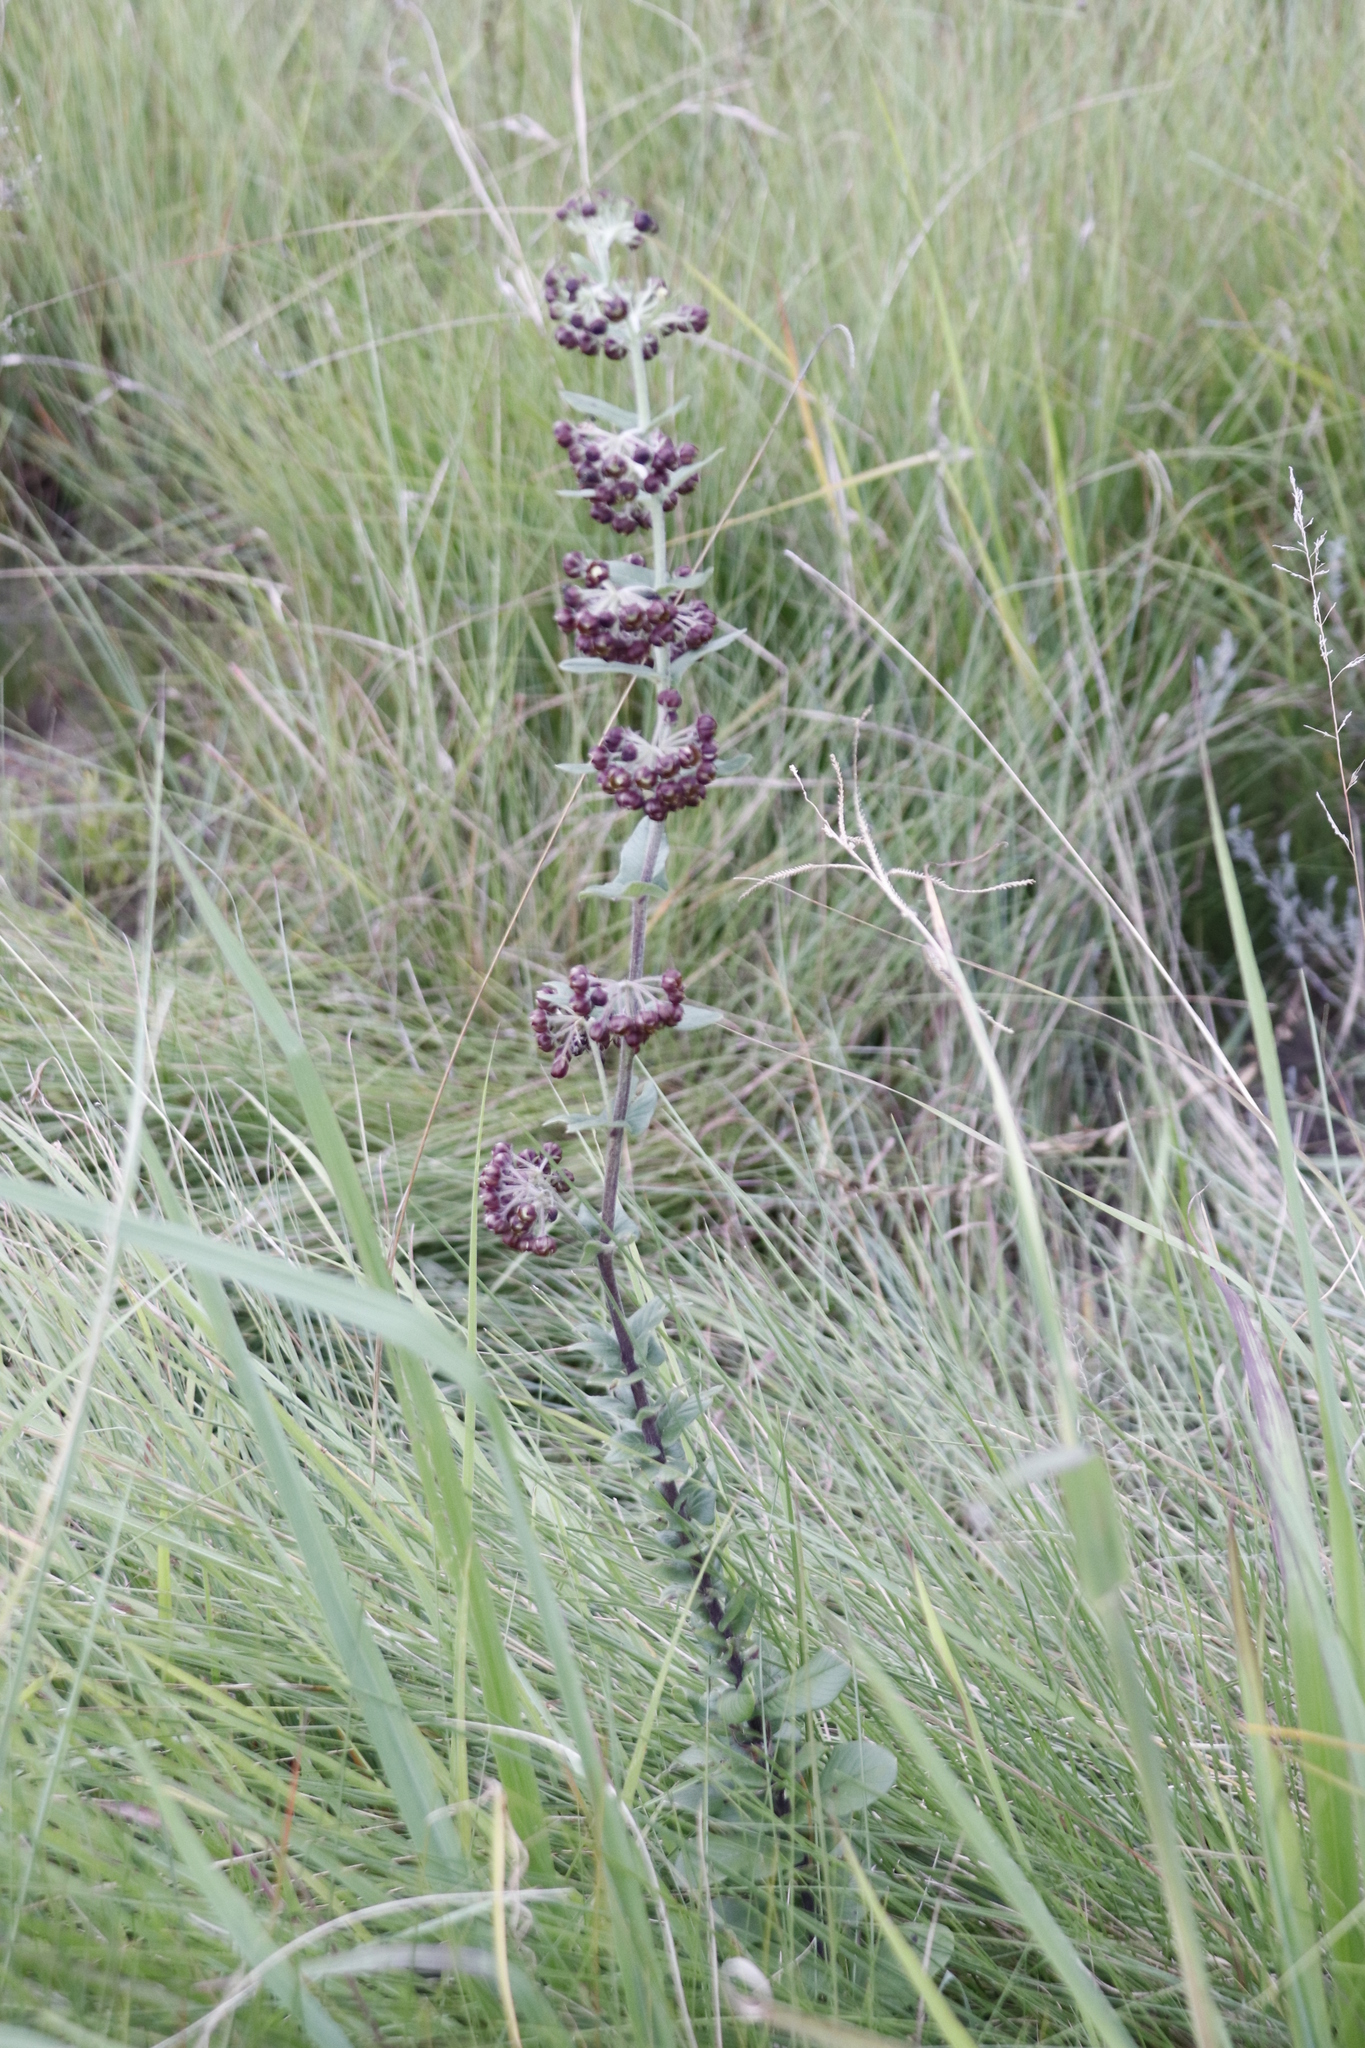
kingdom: Plantae
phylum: Tracheophyta
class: Magnoliopsida
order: Gentianales
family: Apocynaceae
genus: Schizoglossum
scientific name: Schizoglossum atropurpureum
